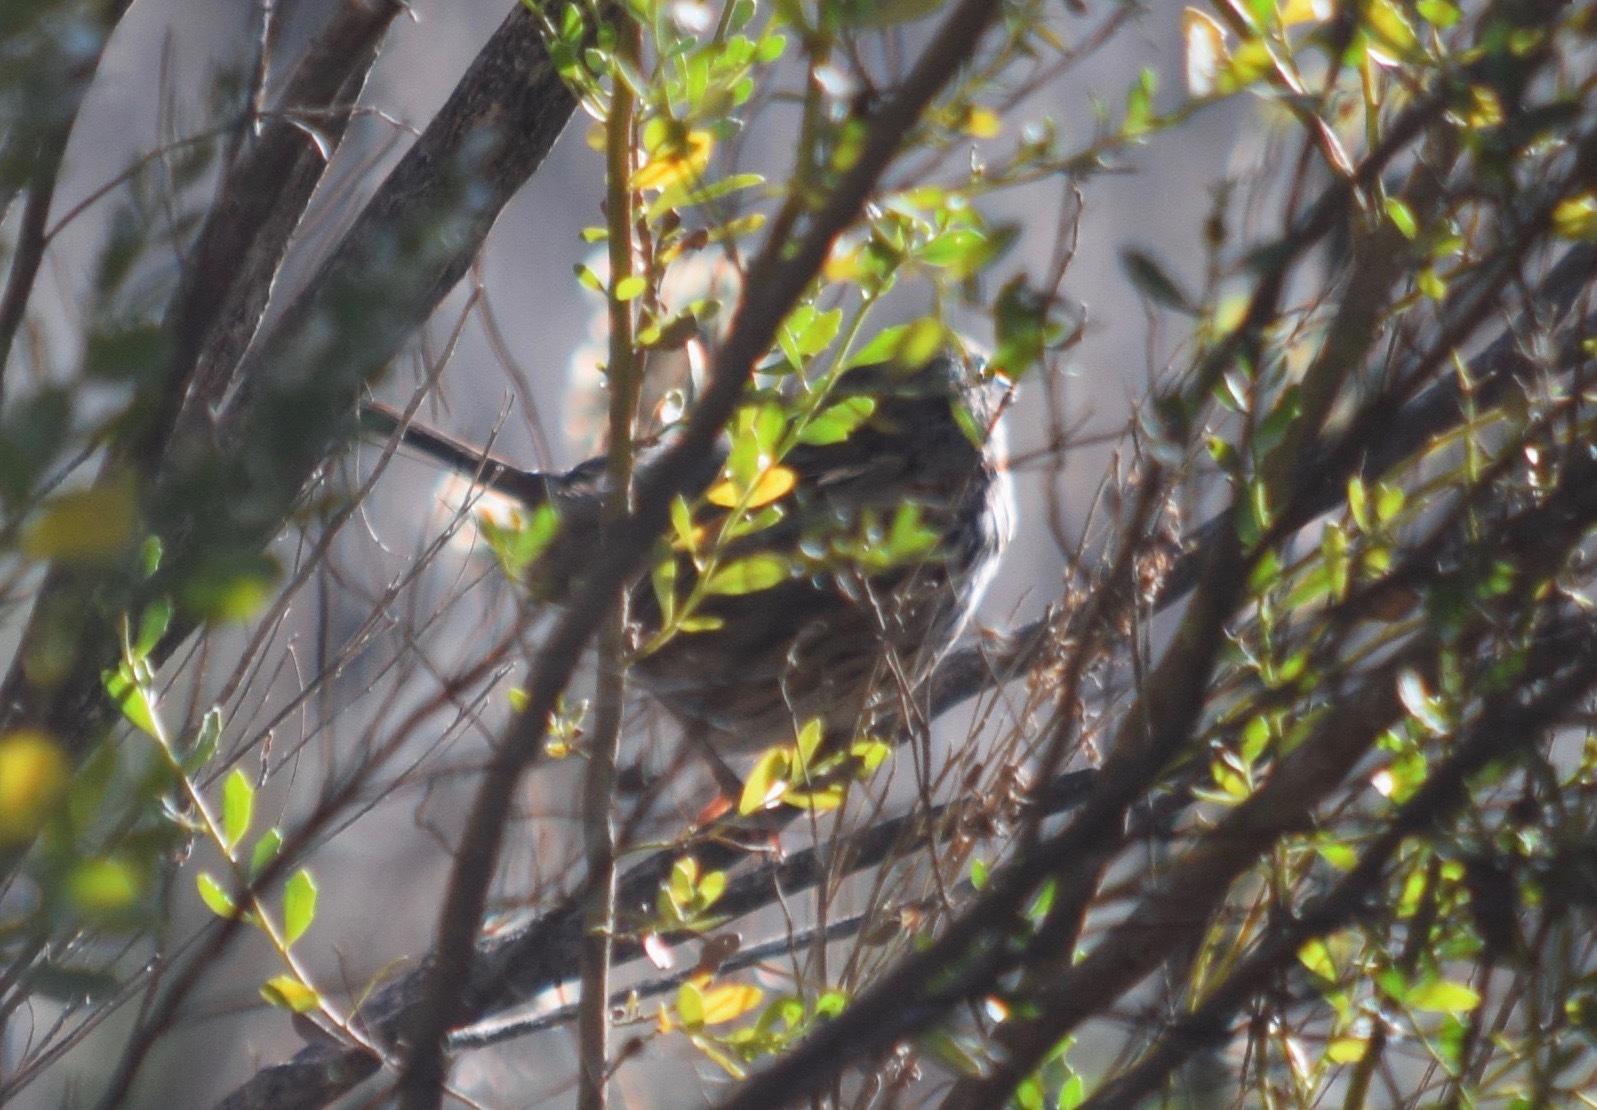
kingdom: Animalia
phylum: Chordata
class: Aves
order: Passeriformes
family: Passerellidae
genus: Melospiza
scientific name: Melospiza melodia
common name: Song sparrow
